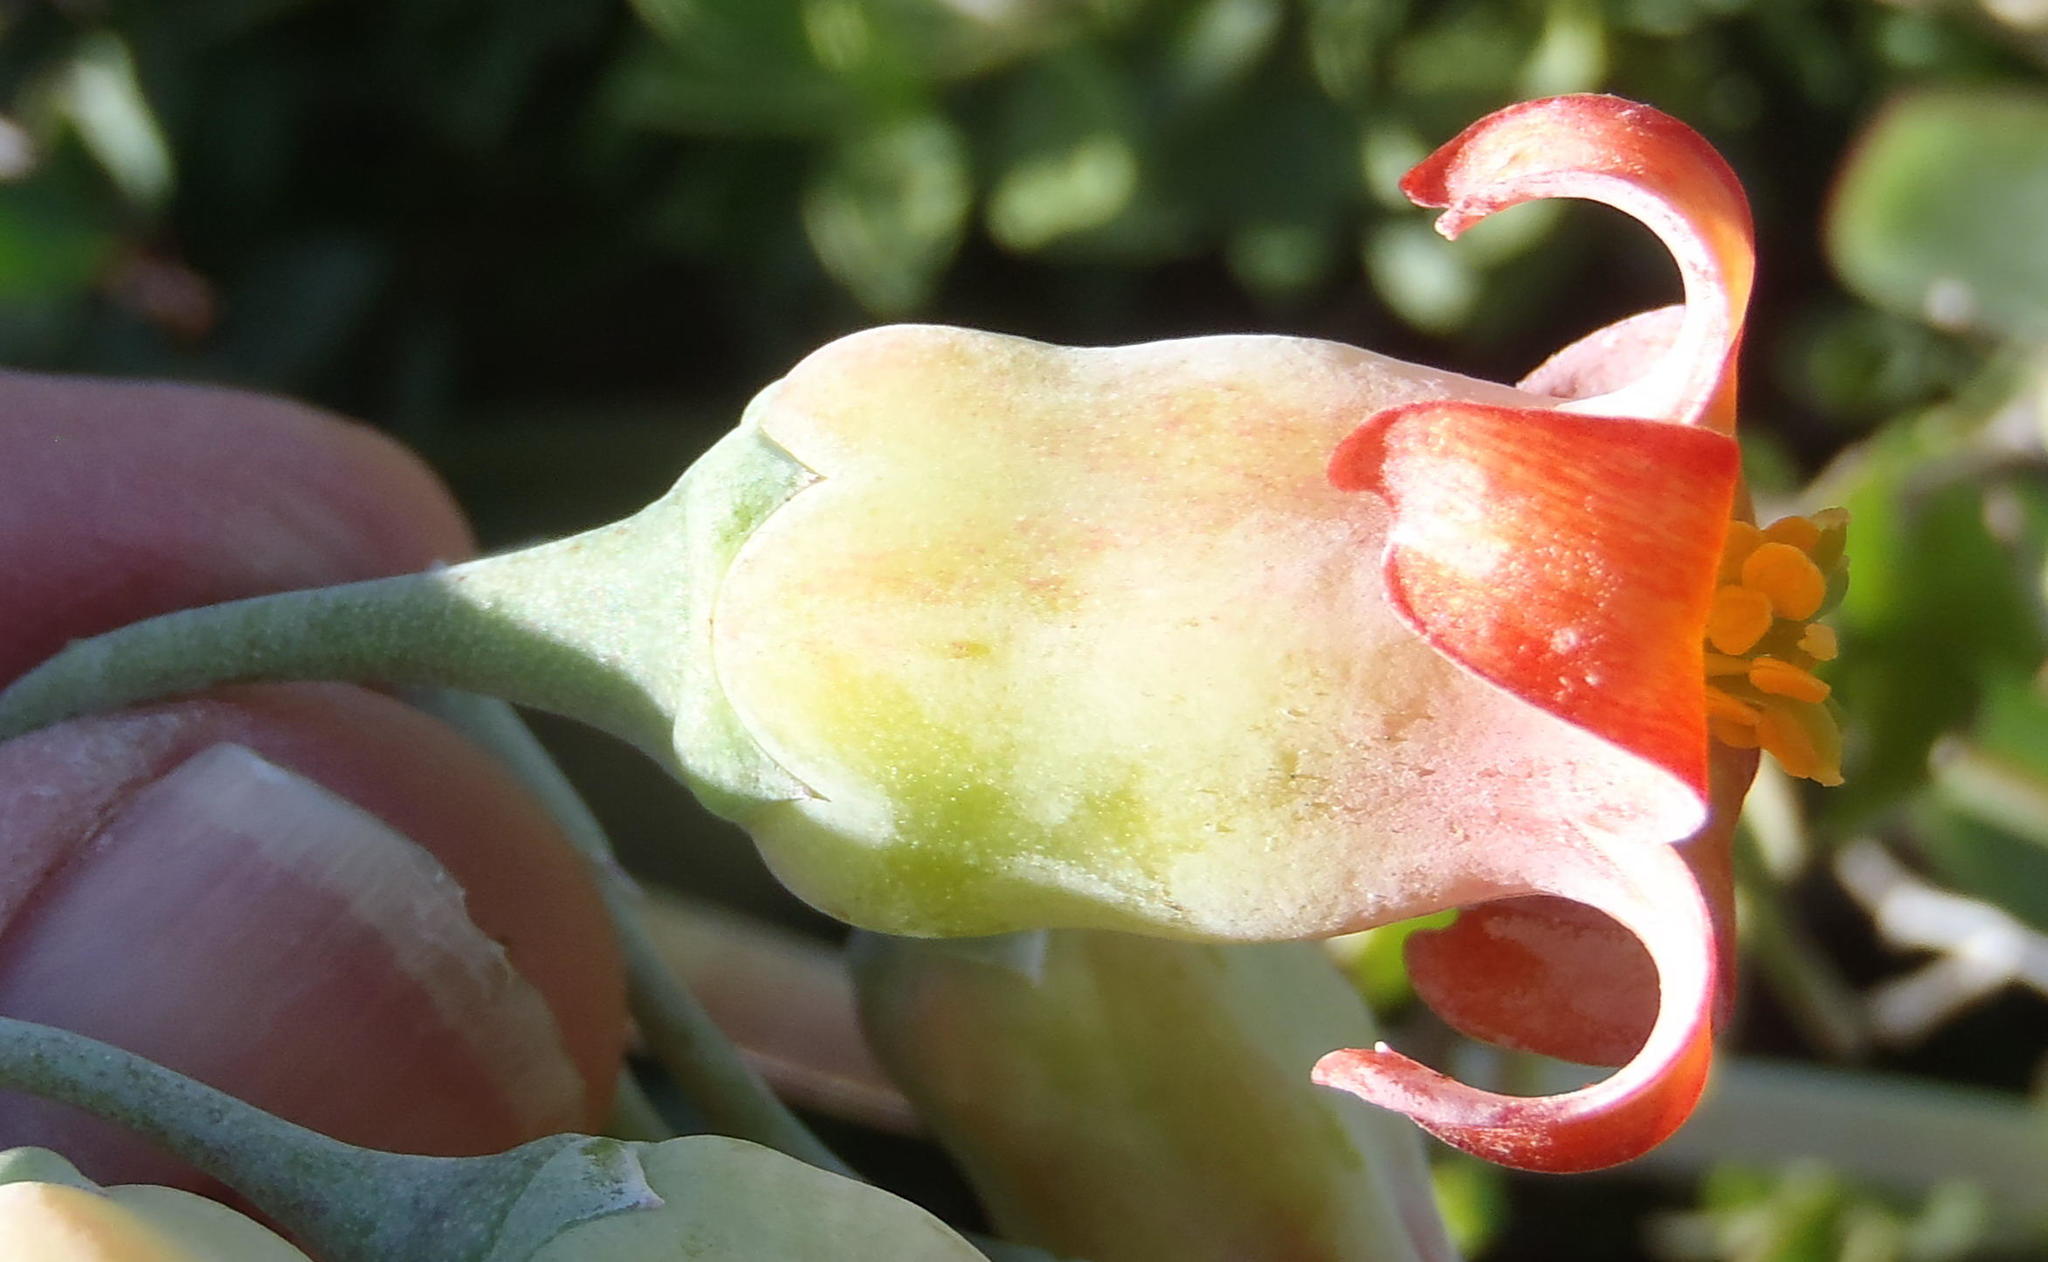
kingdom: Plantae
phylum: Tracheophyta
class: Magnoliopsida
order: Saxifragales
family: Crassulaceae
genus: Cotyledon
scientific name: Cotyledon orbiculata
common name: Pig's ear
